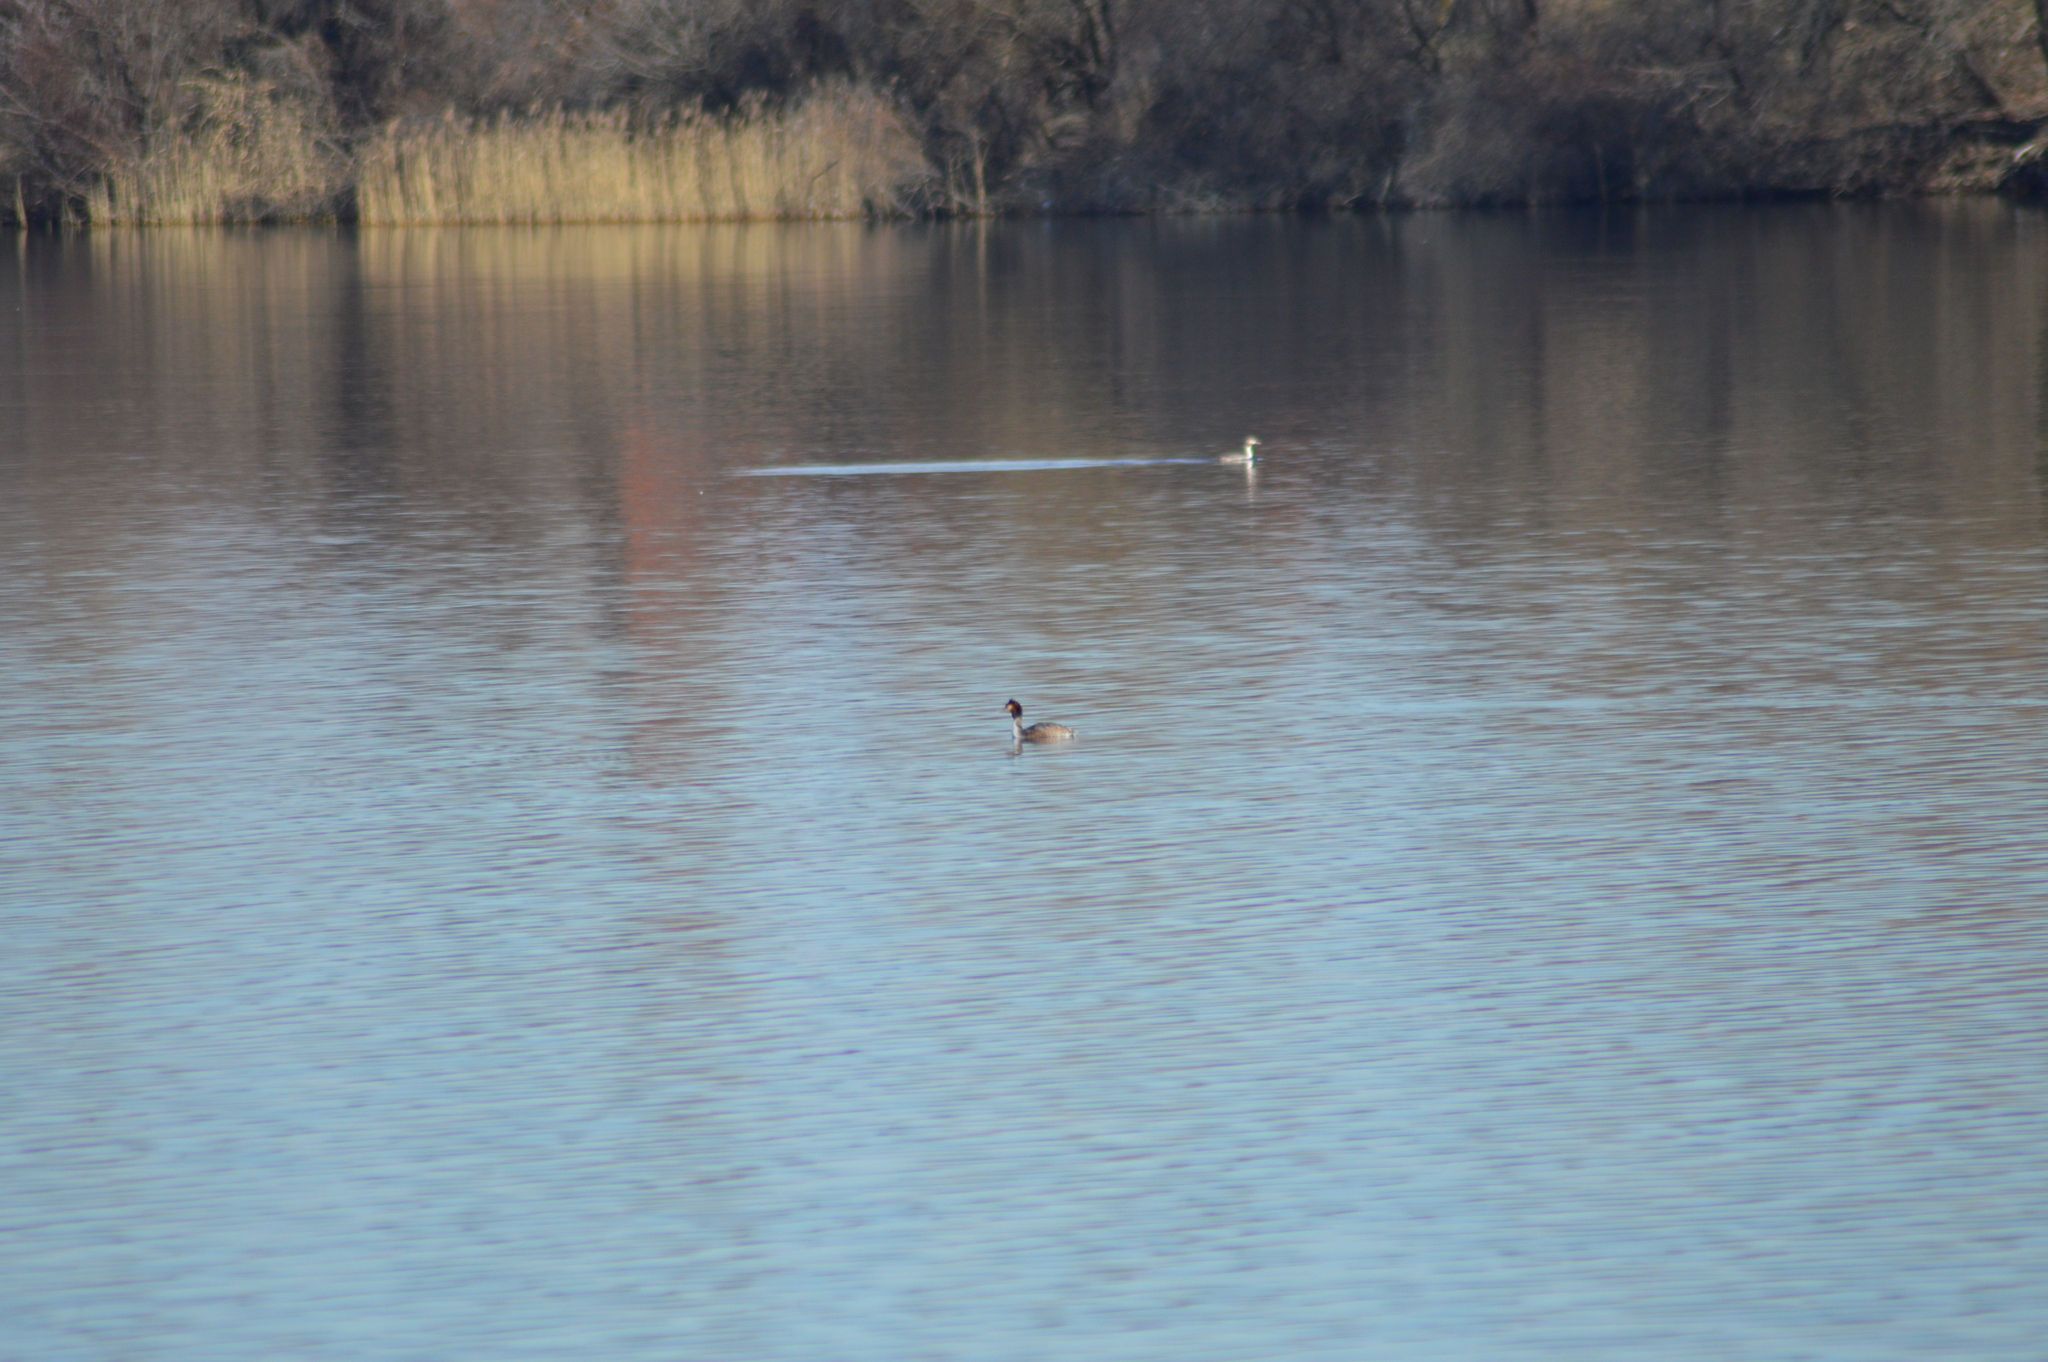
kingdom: Animalia
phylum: Chordata
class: Aves
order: Podicipediformes
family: Podicipedidae
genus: Podiceps
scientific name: Podiceps cristatus
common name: Great crested grebe
